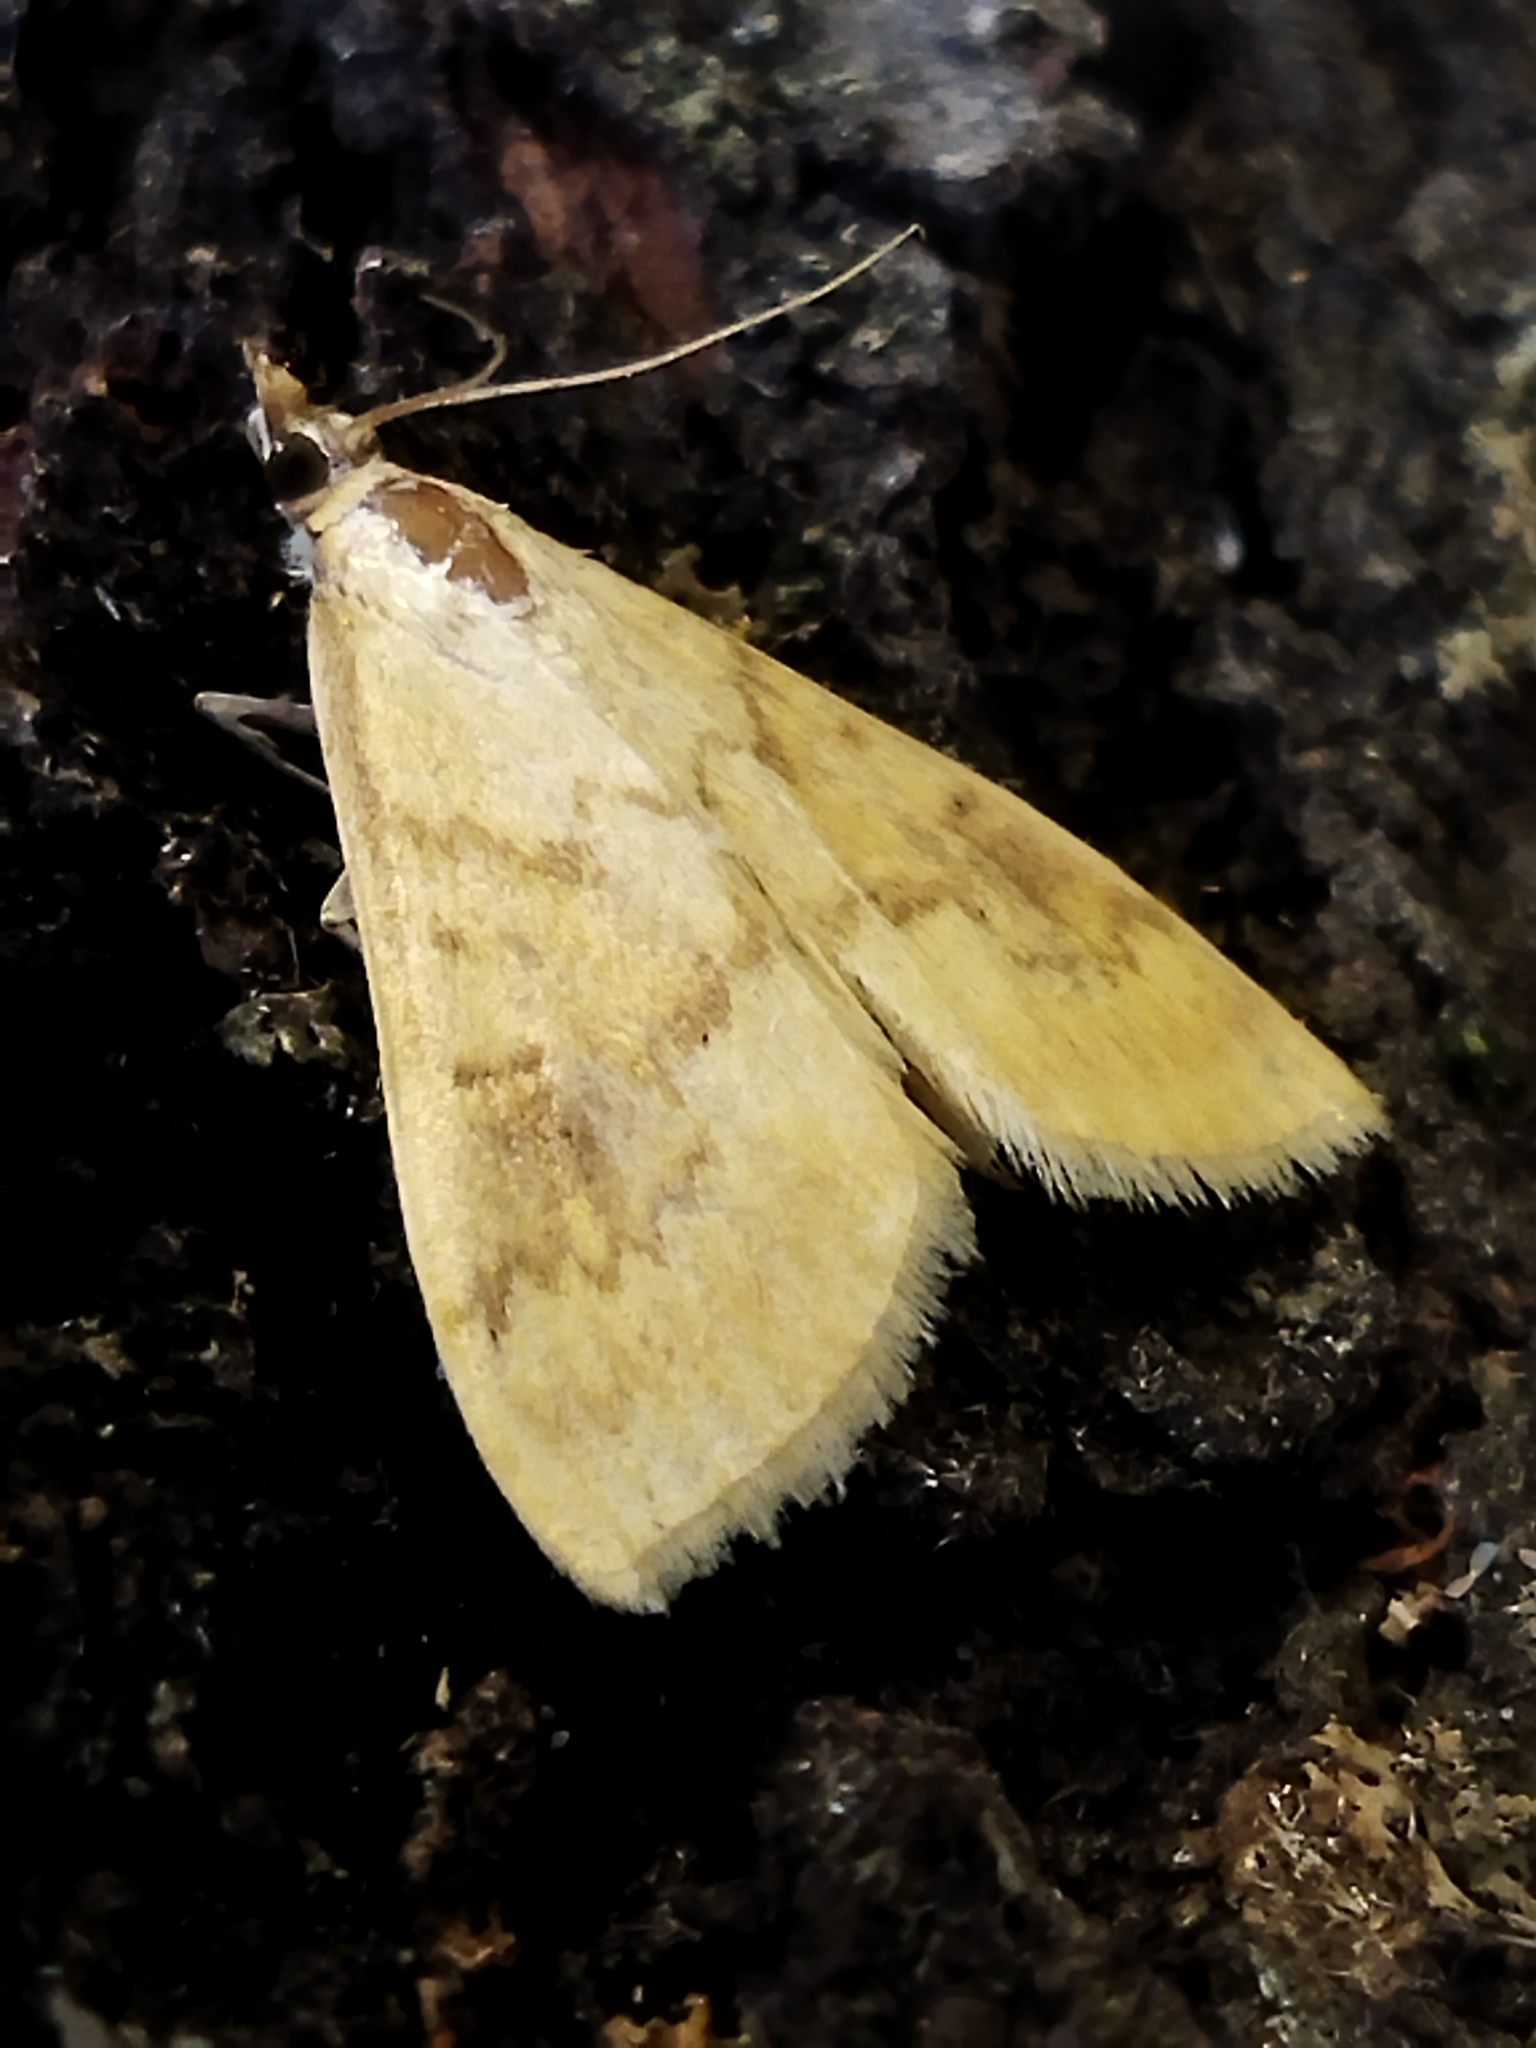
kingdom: Animalia
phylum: Arthropoda
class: Insecta
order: Lepidoptera
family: Crambidae
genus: Ostrinia
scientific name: Ostrinia nubilalis
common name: European corn borer
